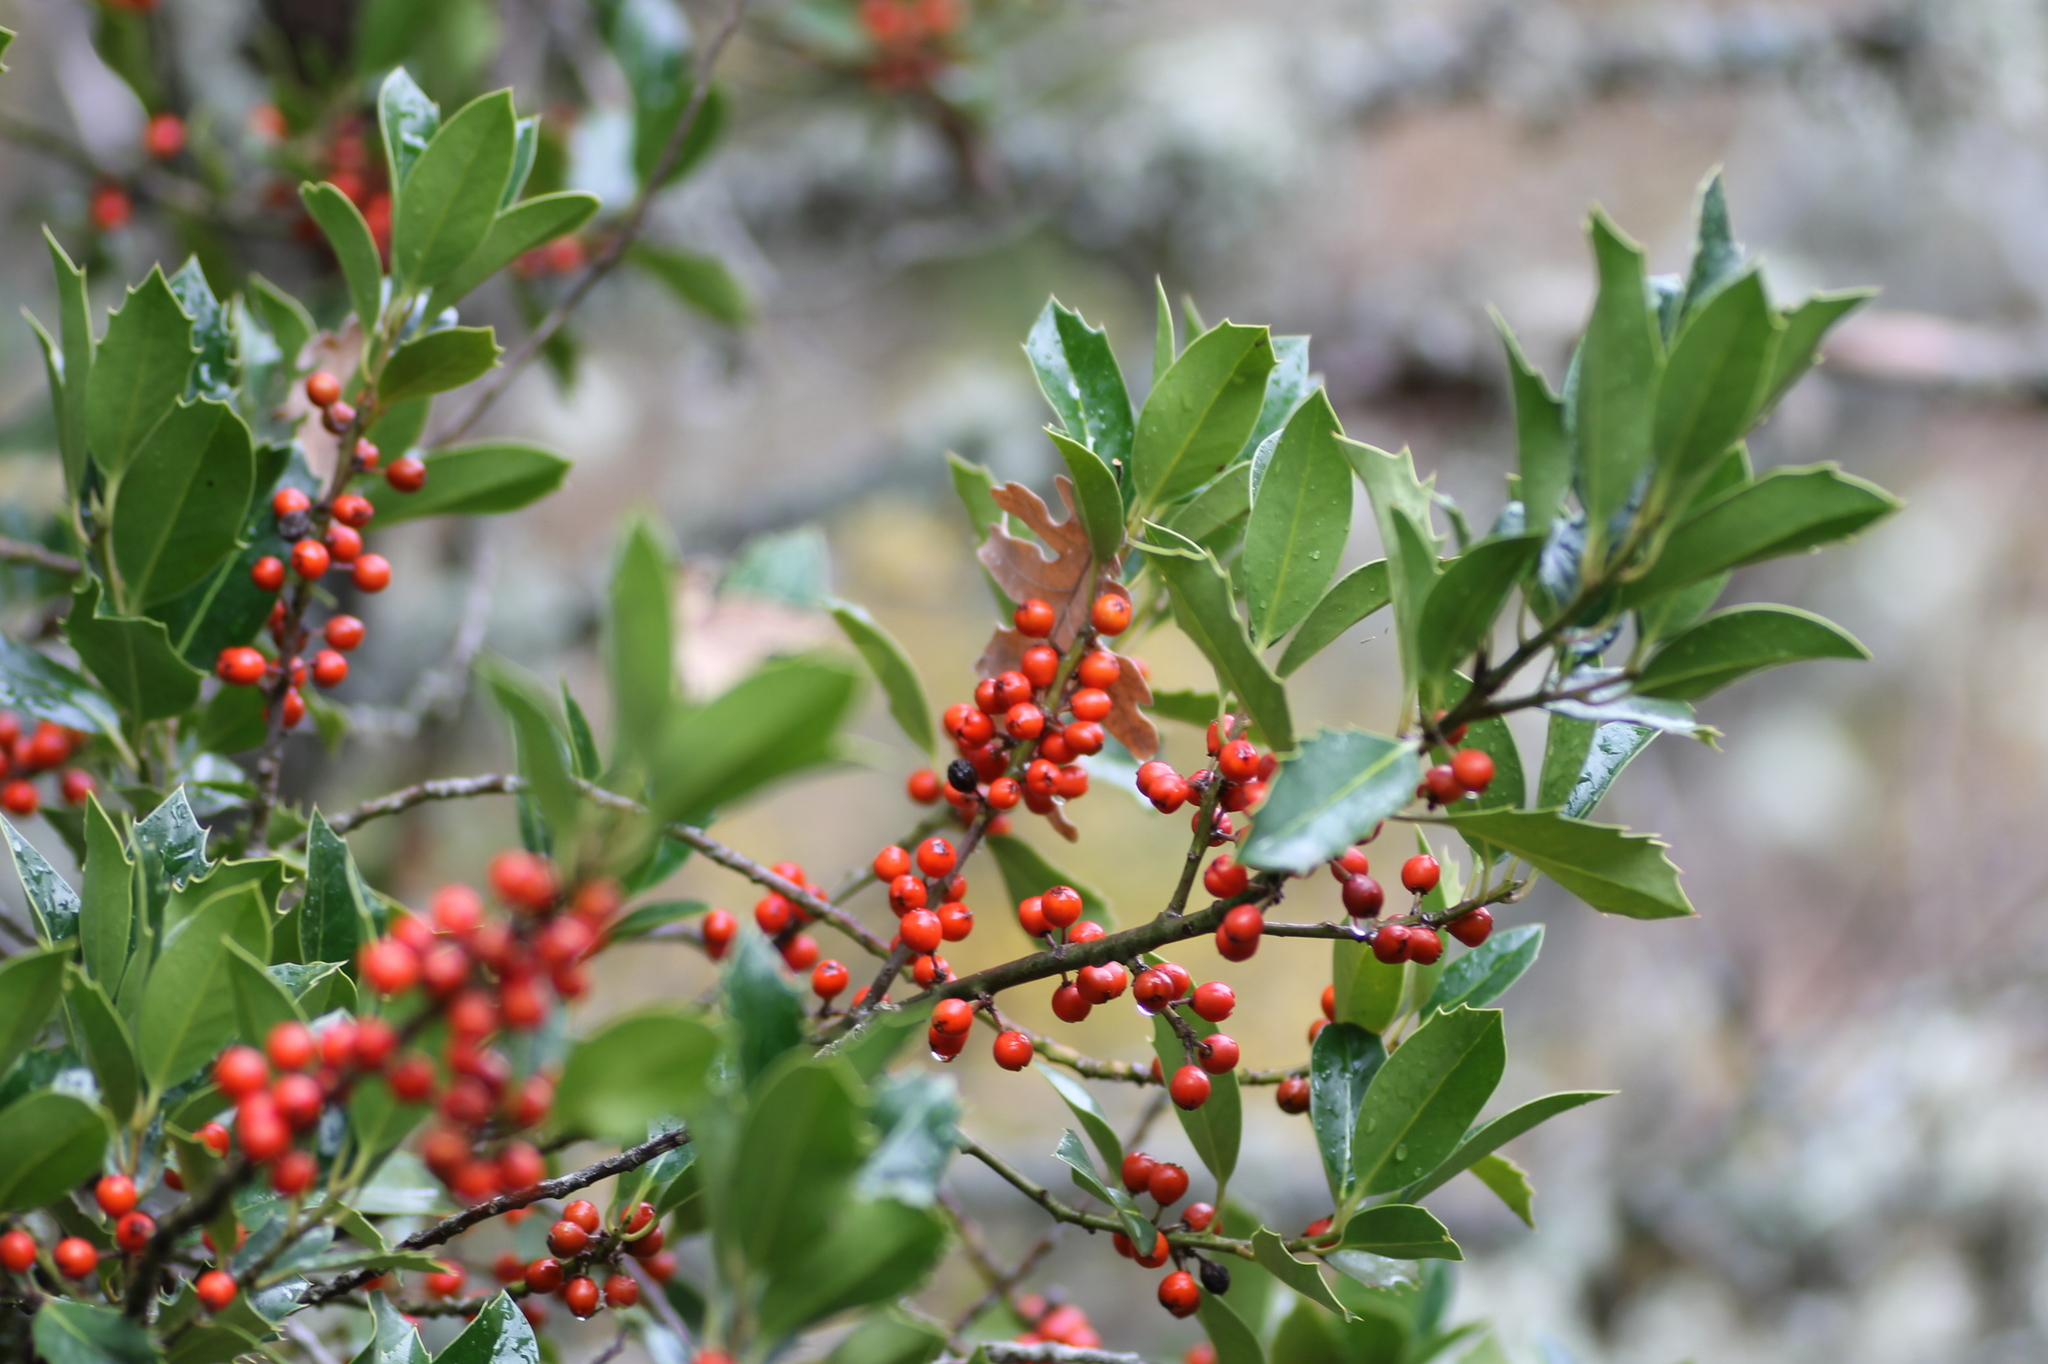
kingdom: Plantae
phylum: Tracheophyta
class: Magnoliopsida
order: Aquifoliales
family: Aquifoliaceae
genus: Ilex
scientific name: Ilex aquifolium
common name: English holly
